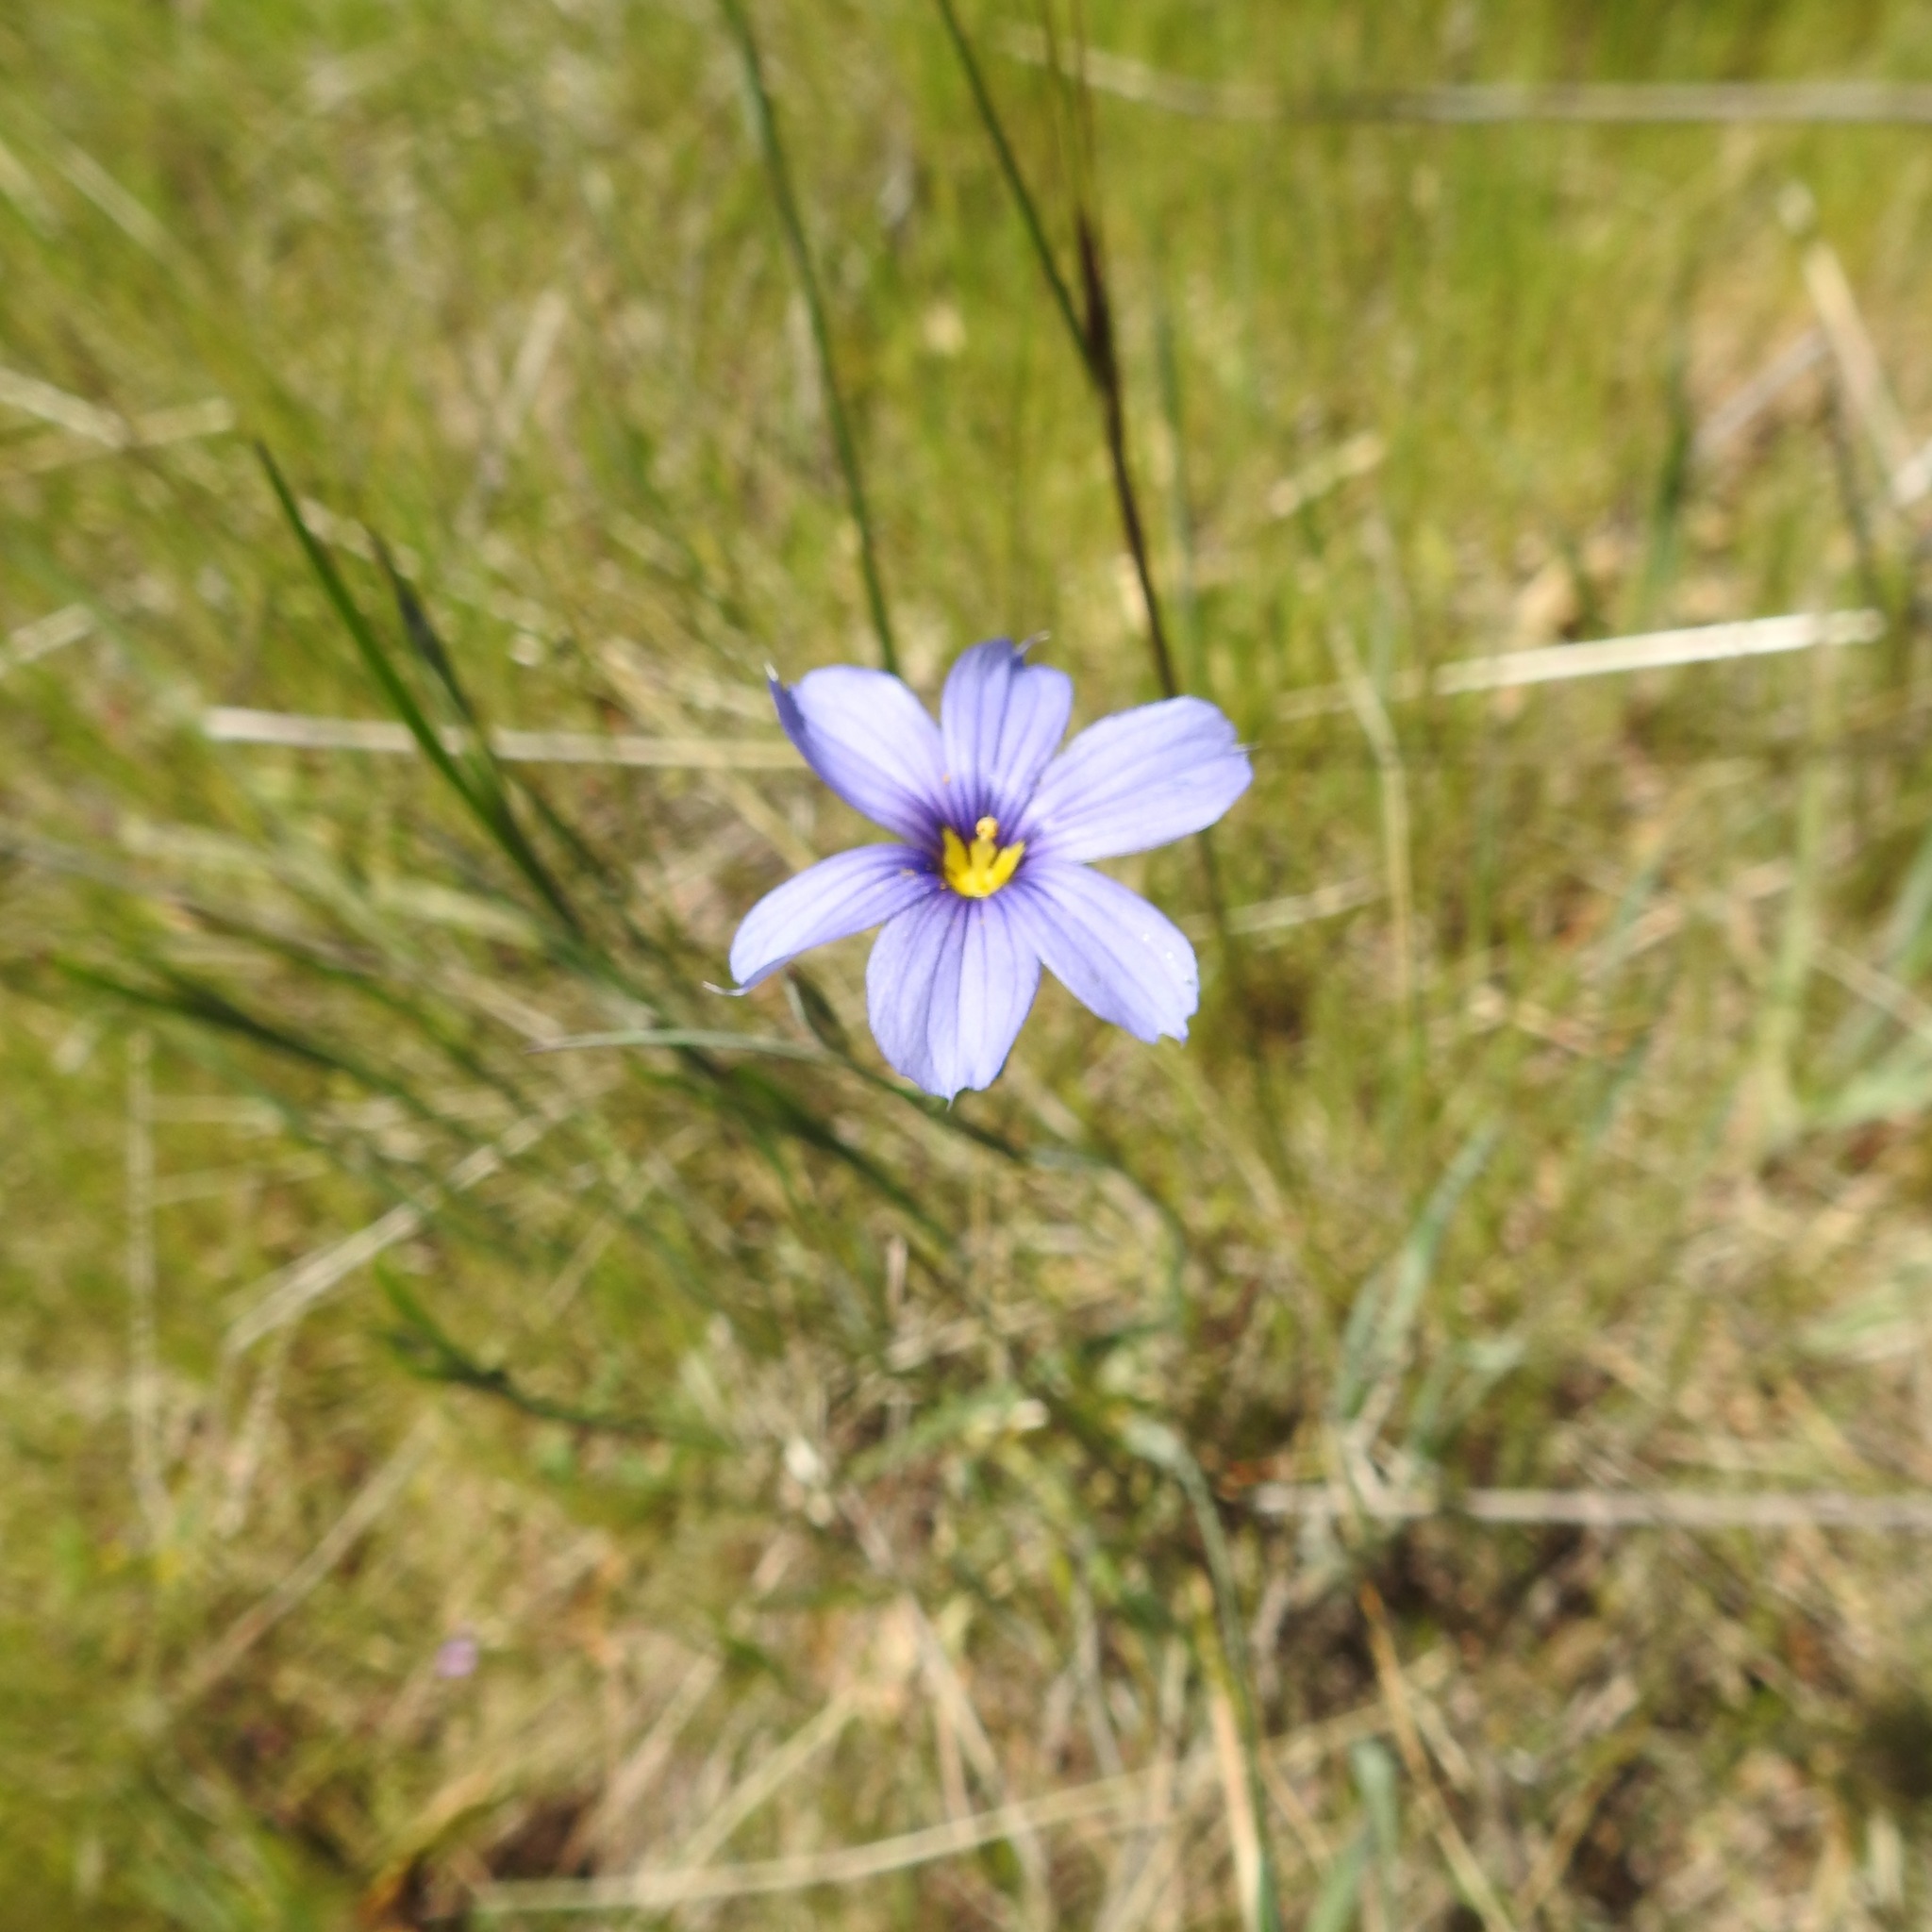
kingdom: Plantae
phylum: Tracheophyta
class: Liliopsida
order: Asparagales
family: Iridaceae
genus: Sisyrinchium
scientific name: Sisyrinchium bellum
